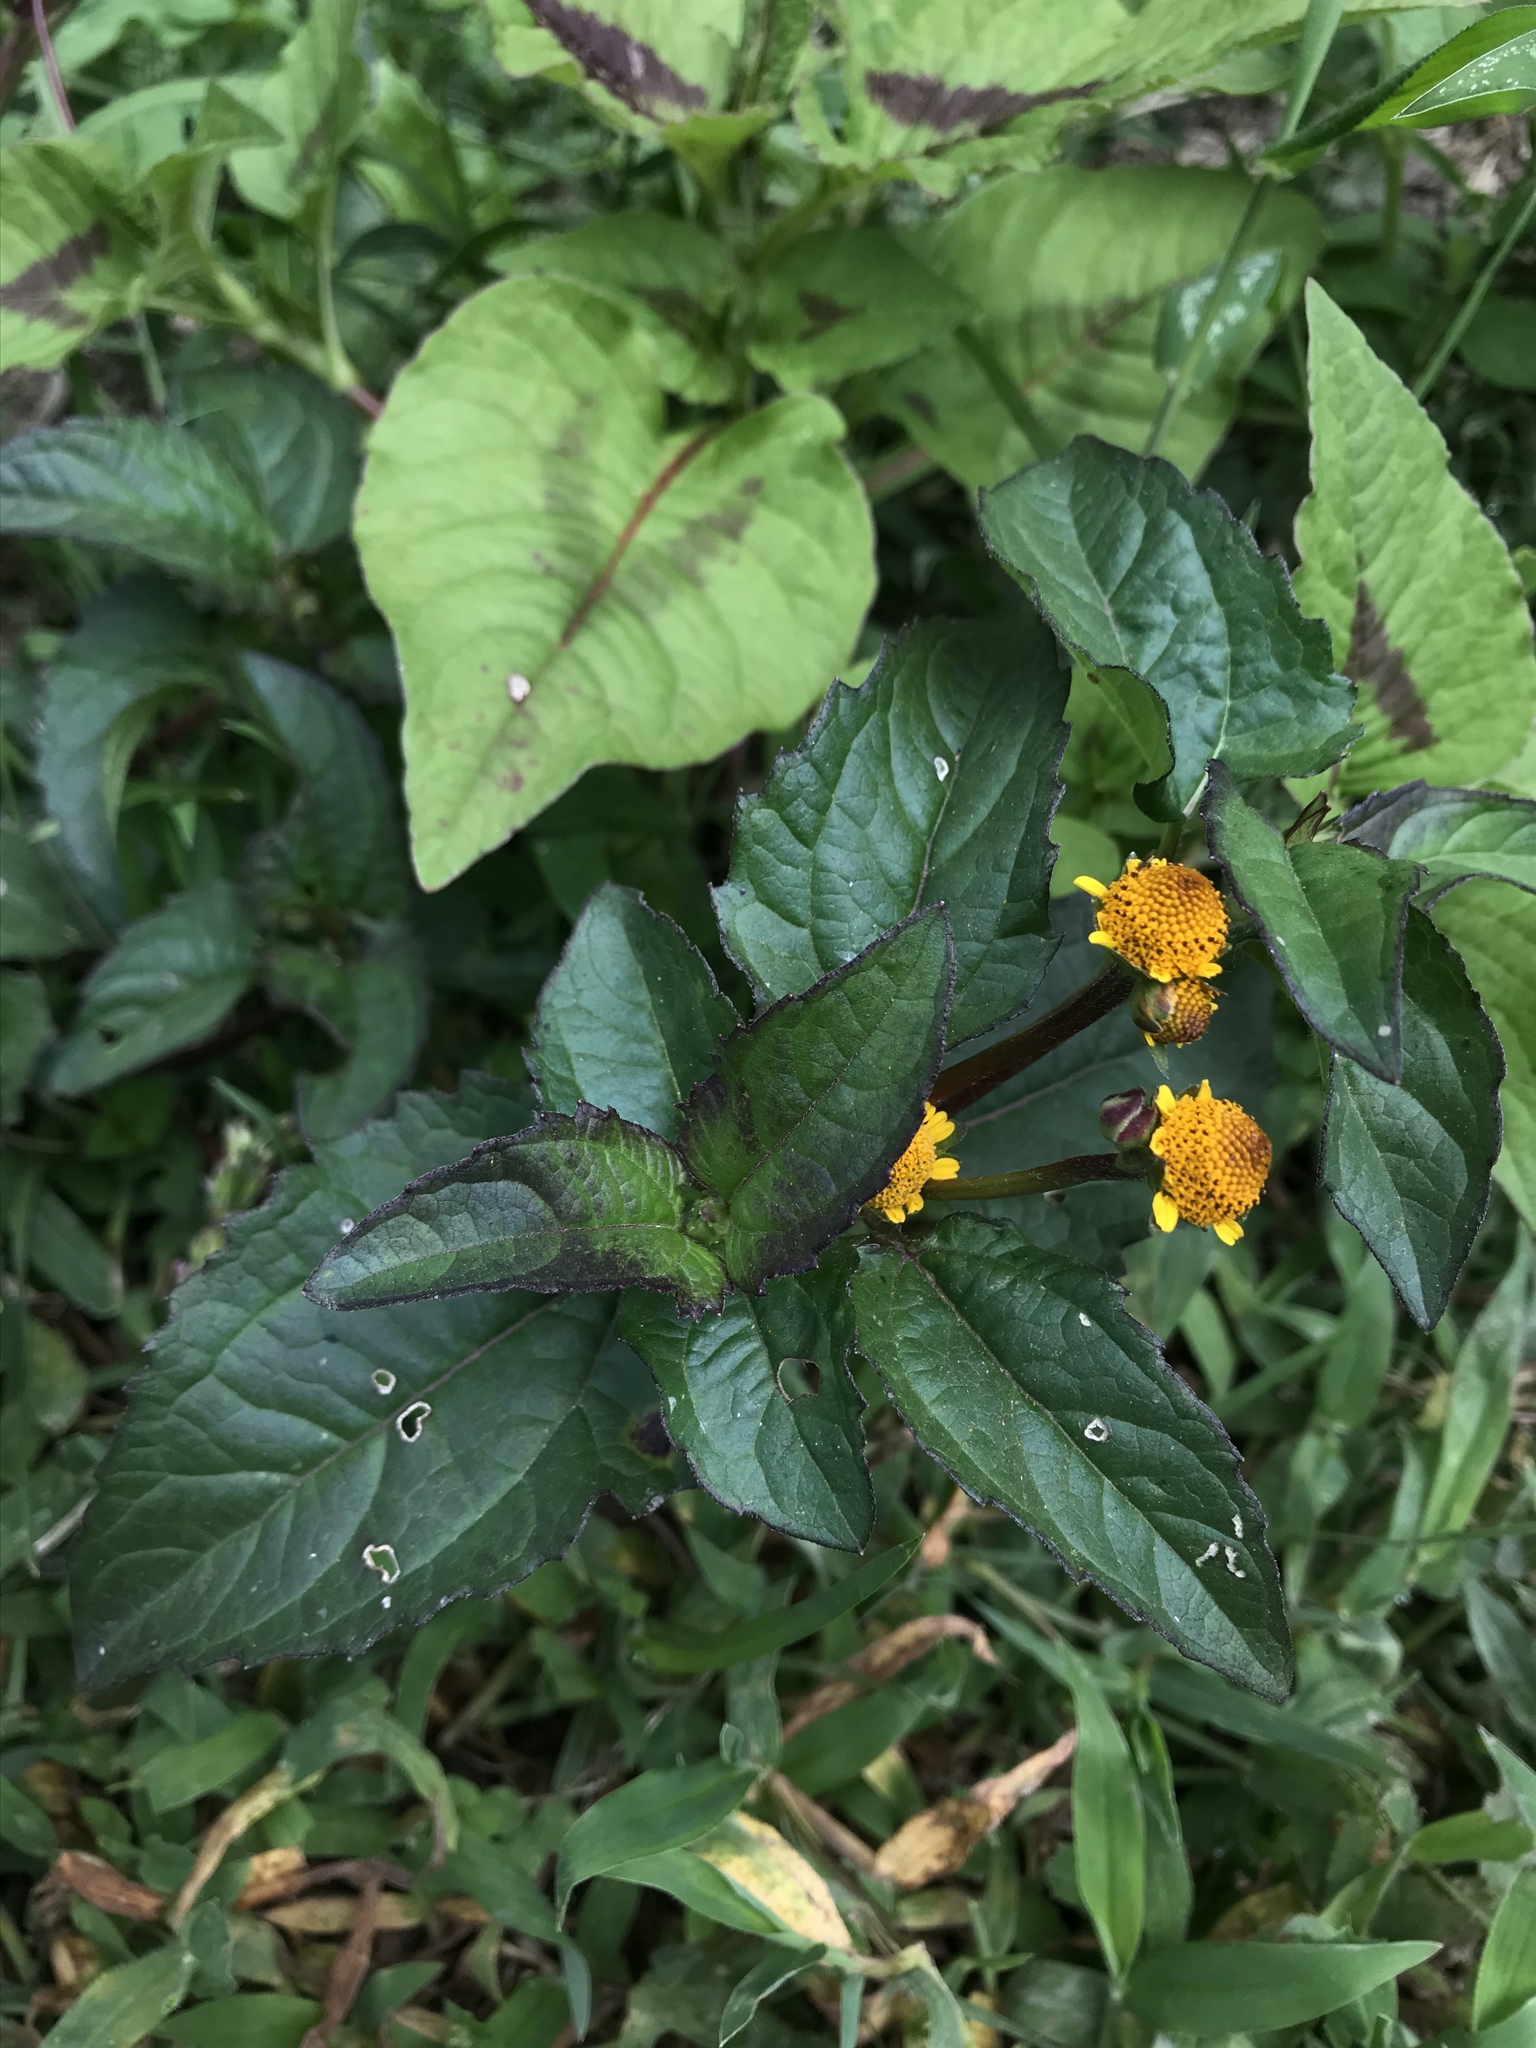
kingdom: Plantae
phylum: Tracheophyta
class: Magnoliopsida
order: Asterales
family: Asteraceae
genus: Heliopsis
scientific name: Heliopsis buphthalmoides
